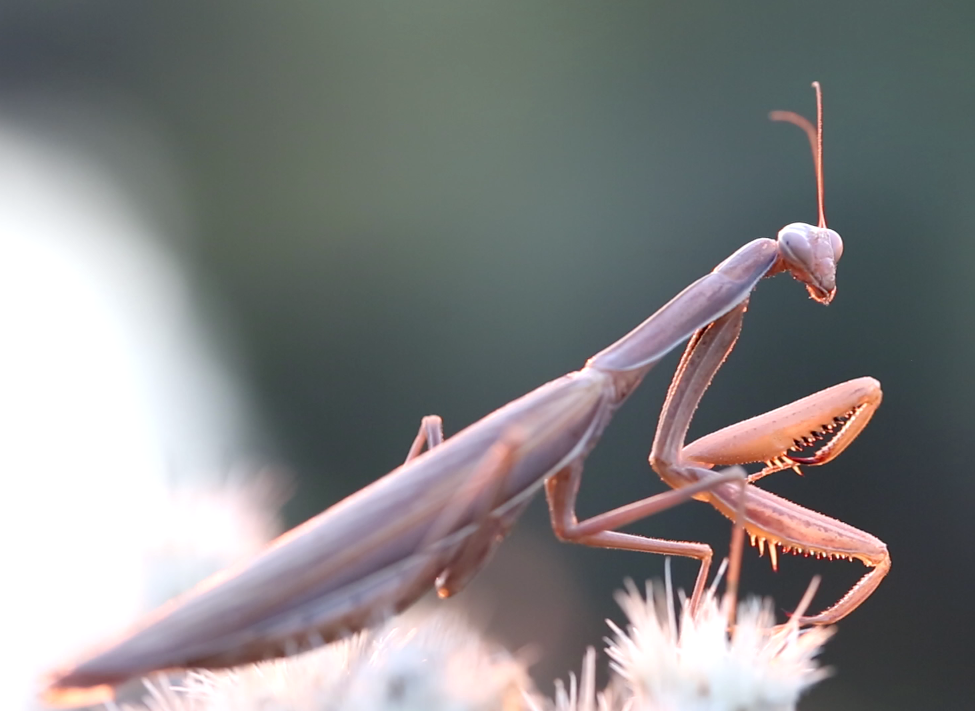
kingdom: Animalia
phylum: Arthropoda
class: Insecta
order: Mantodea
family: Mantidae
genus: Mantis
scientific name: Mantis religiosa
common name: Praying mantis
